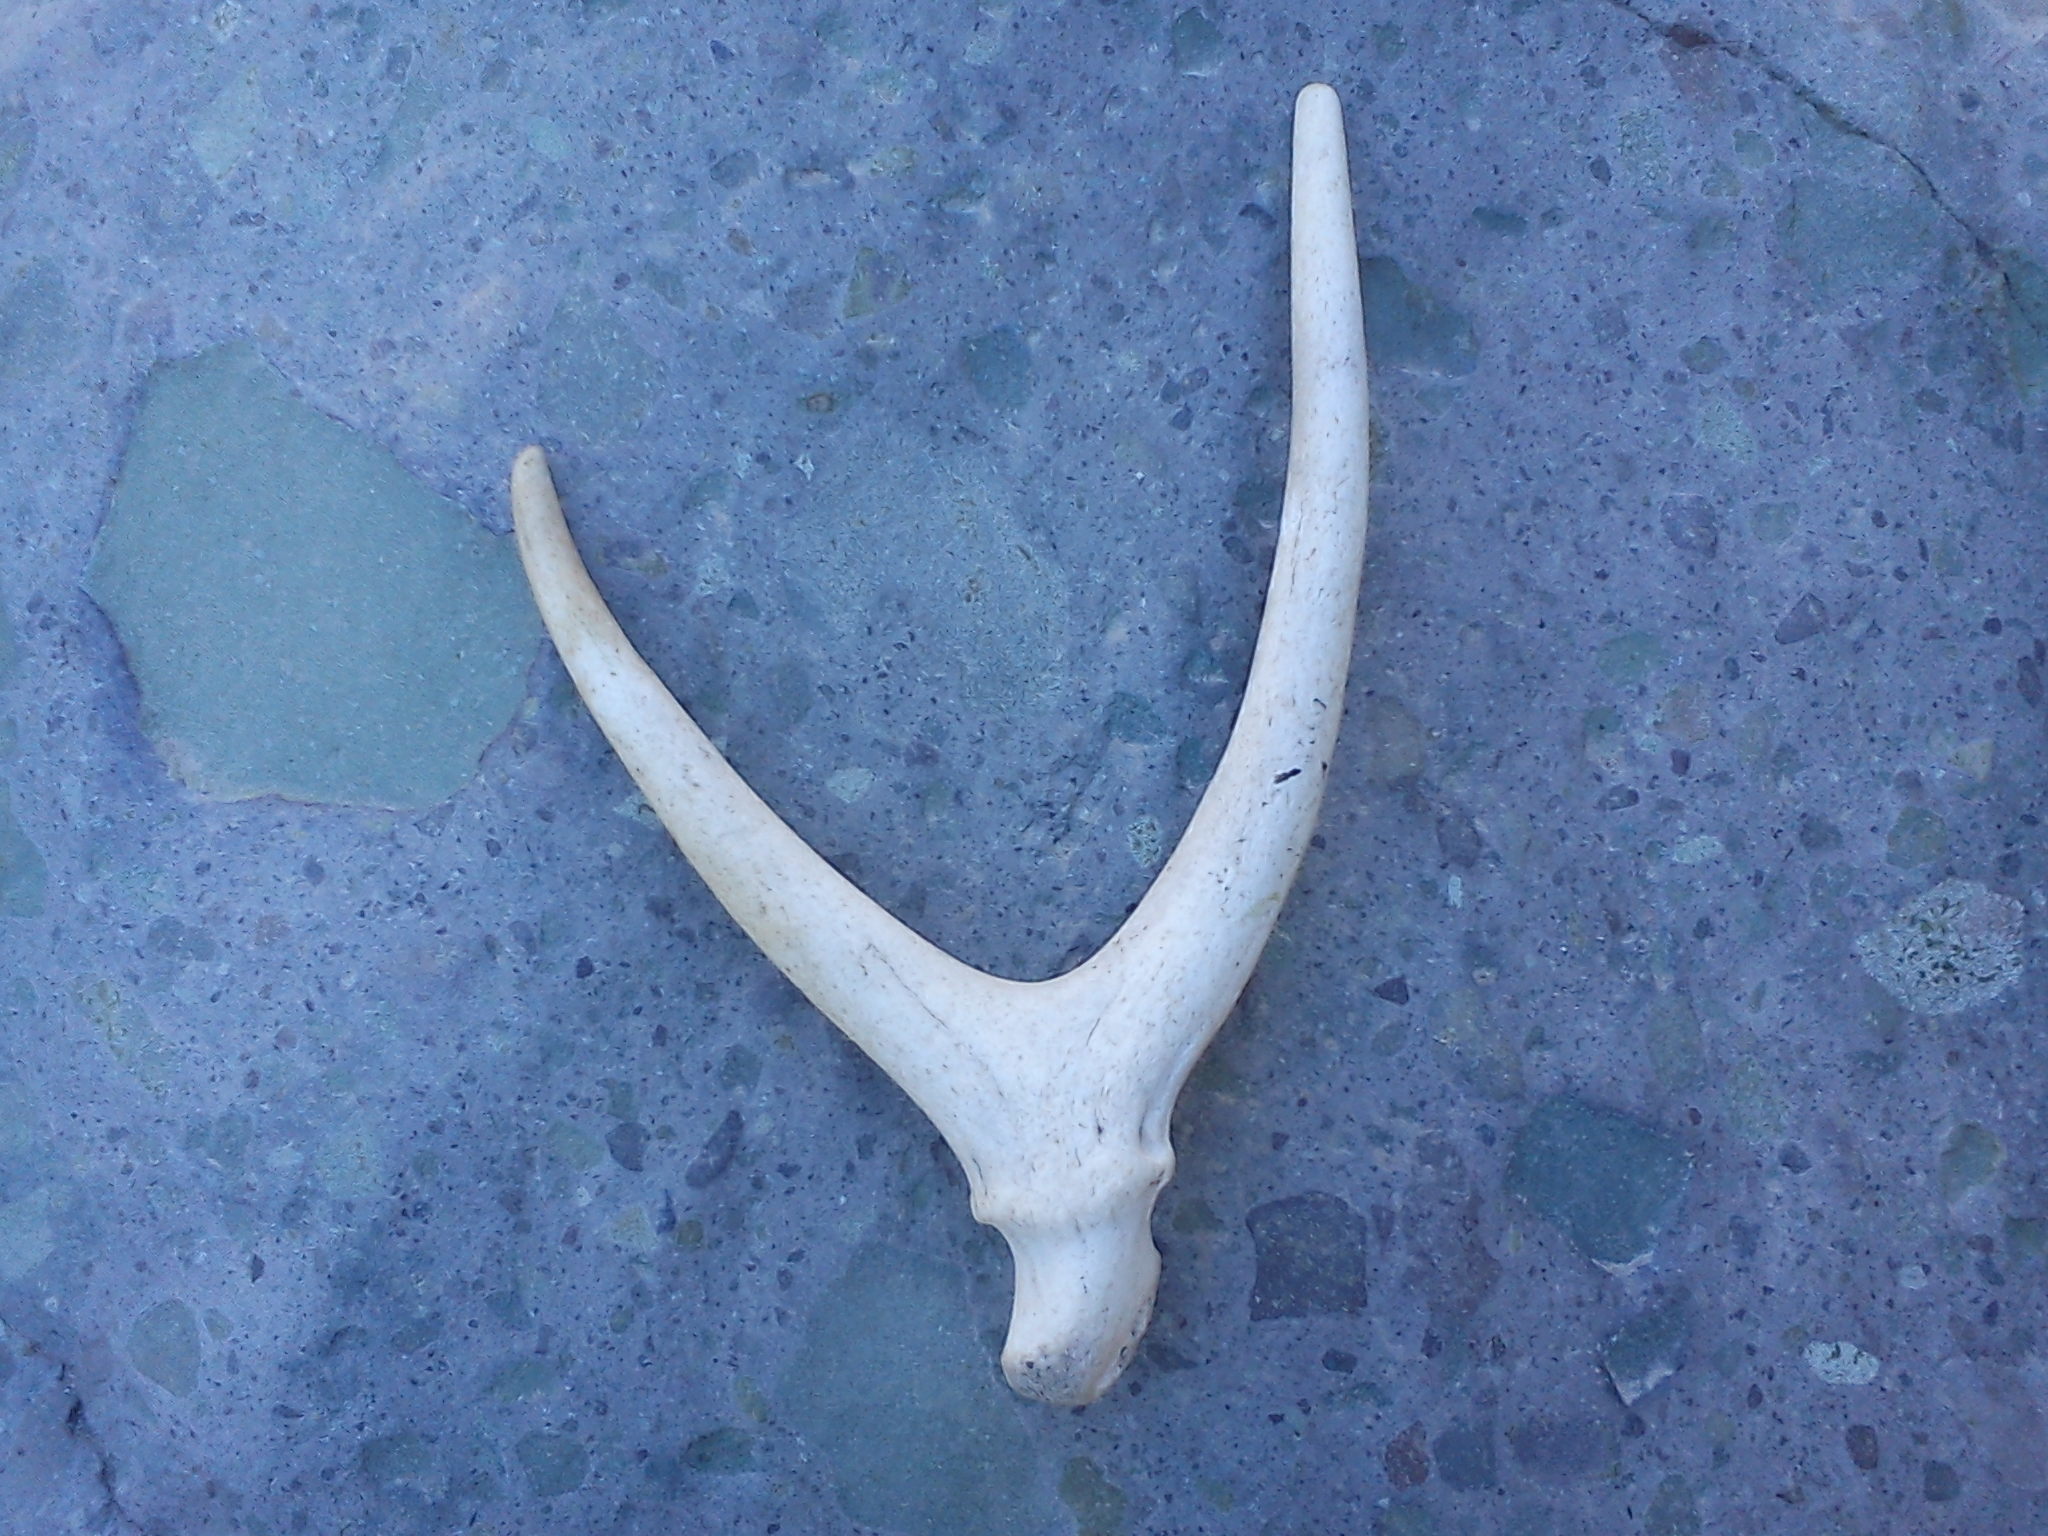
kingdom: Animalia
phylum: Chordata
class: Mammalia
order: Artiodactyla
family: Cervidae
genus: Hippocamelus
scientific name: Hippocamelus antisensis
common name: Taruca
